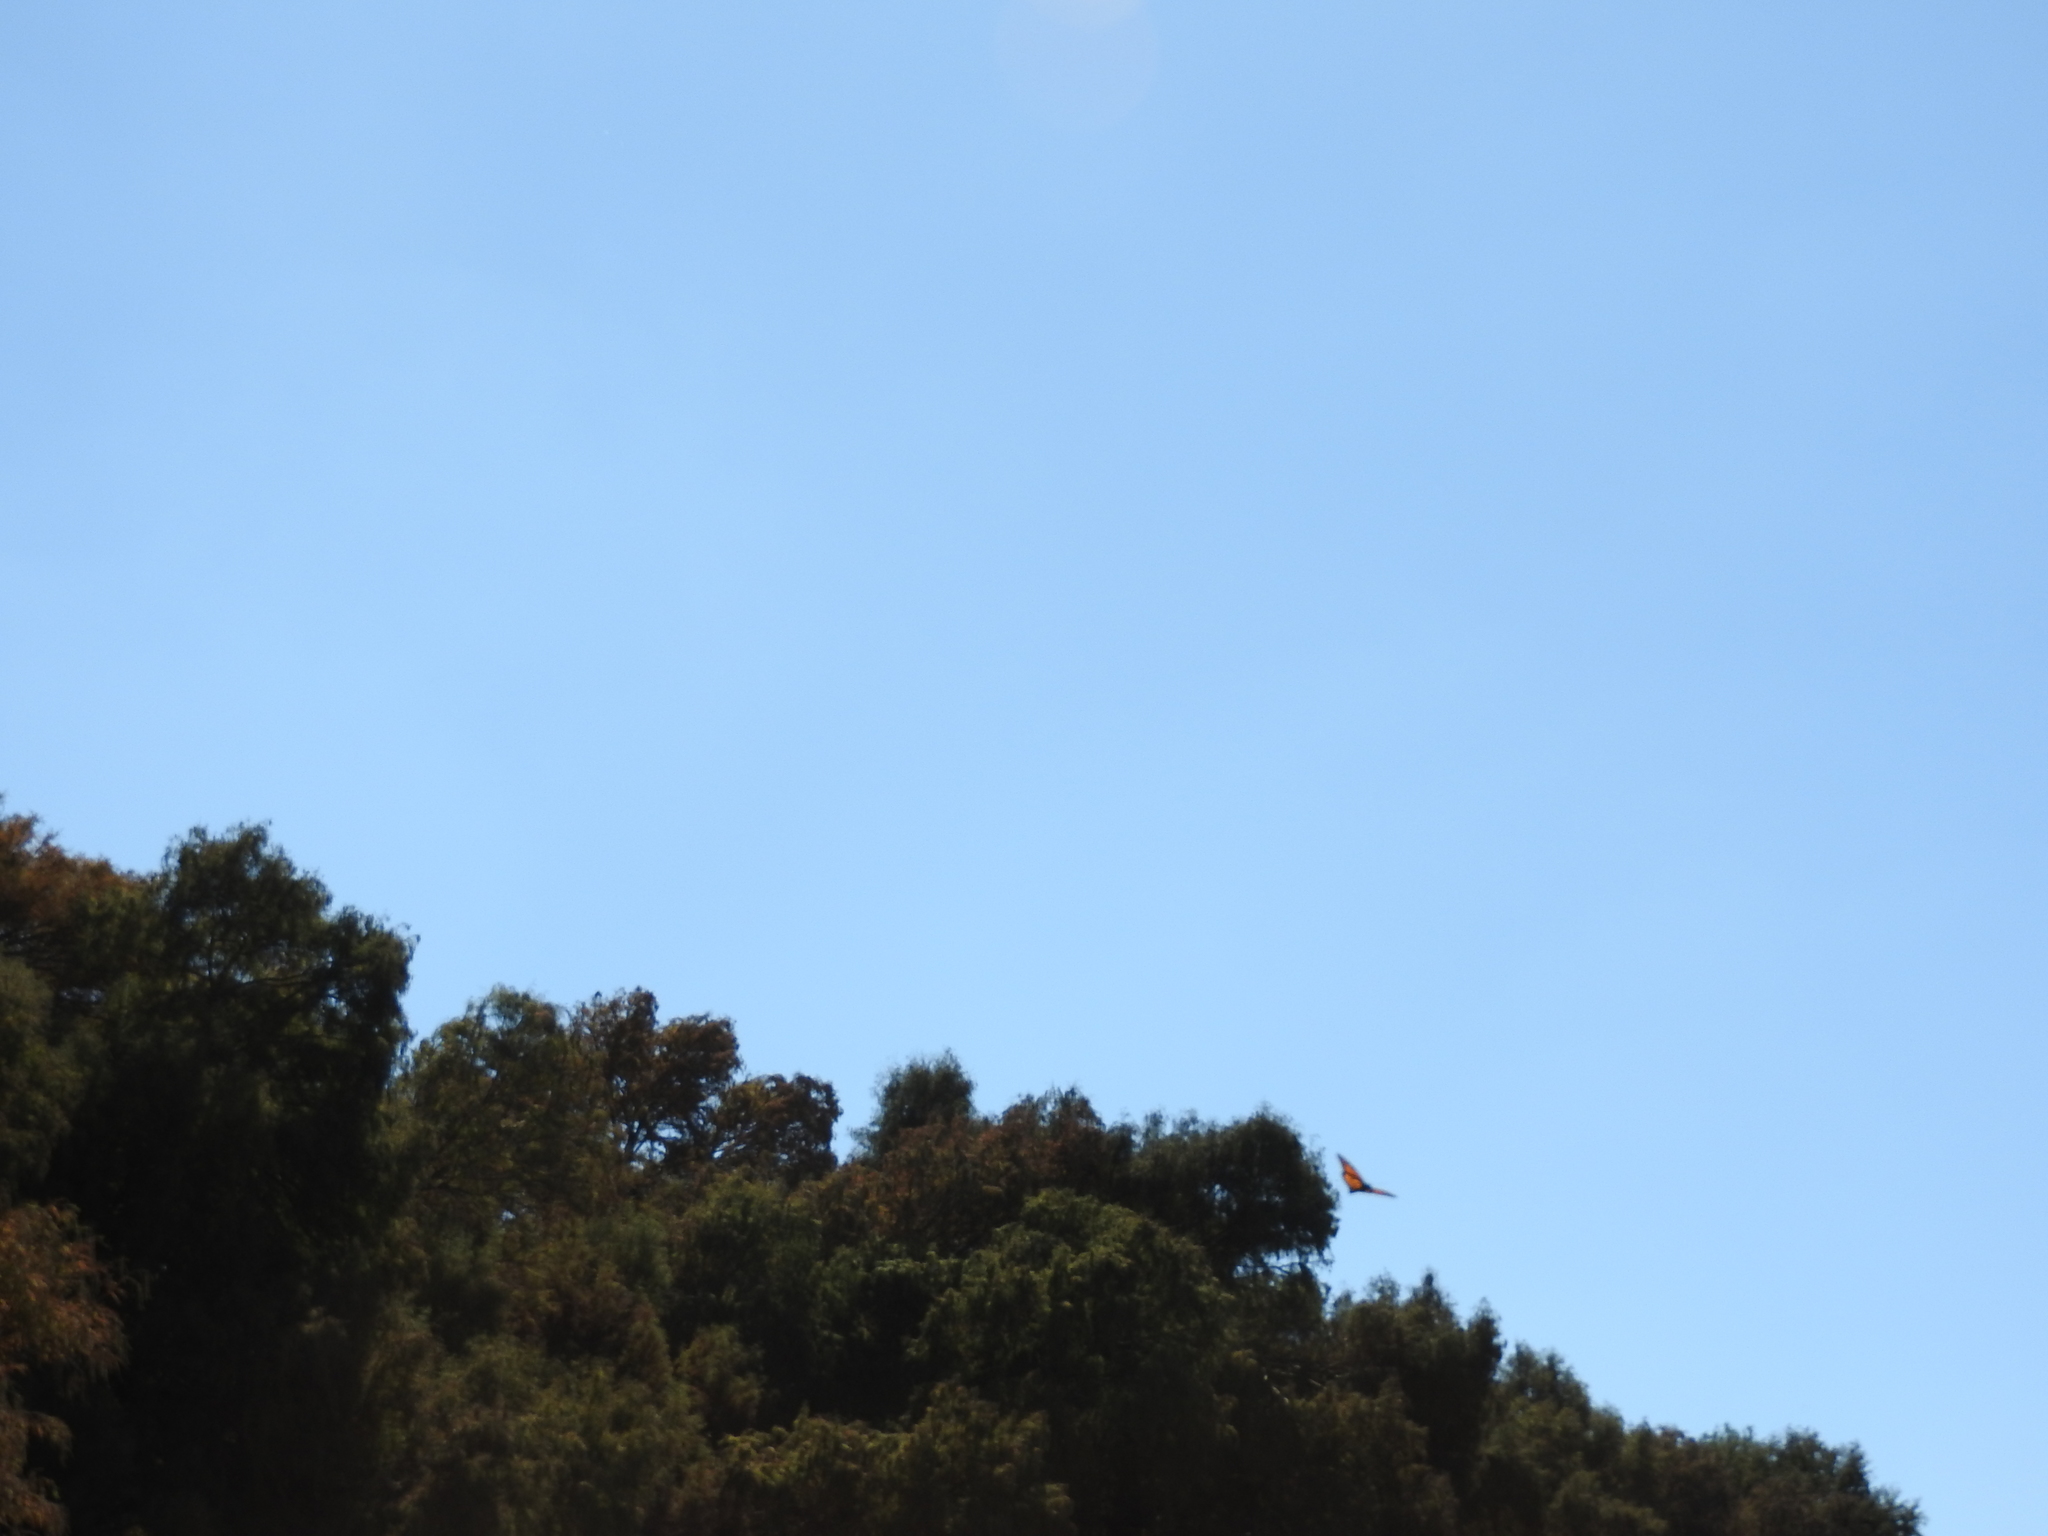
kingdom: Animalia
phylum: Arthropoda
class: Insecta
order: Lepidoptera
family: Nymphalidae
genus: Danaus
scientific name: Danaus plexippus
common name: Monarch
